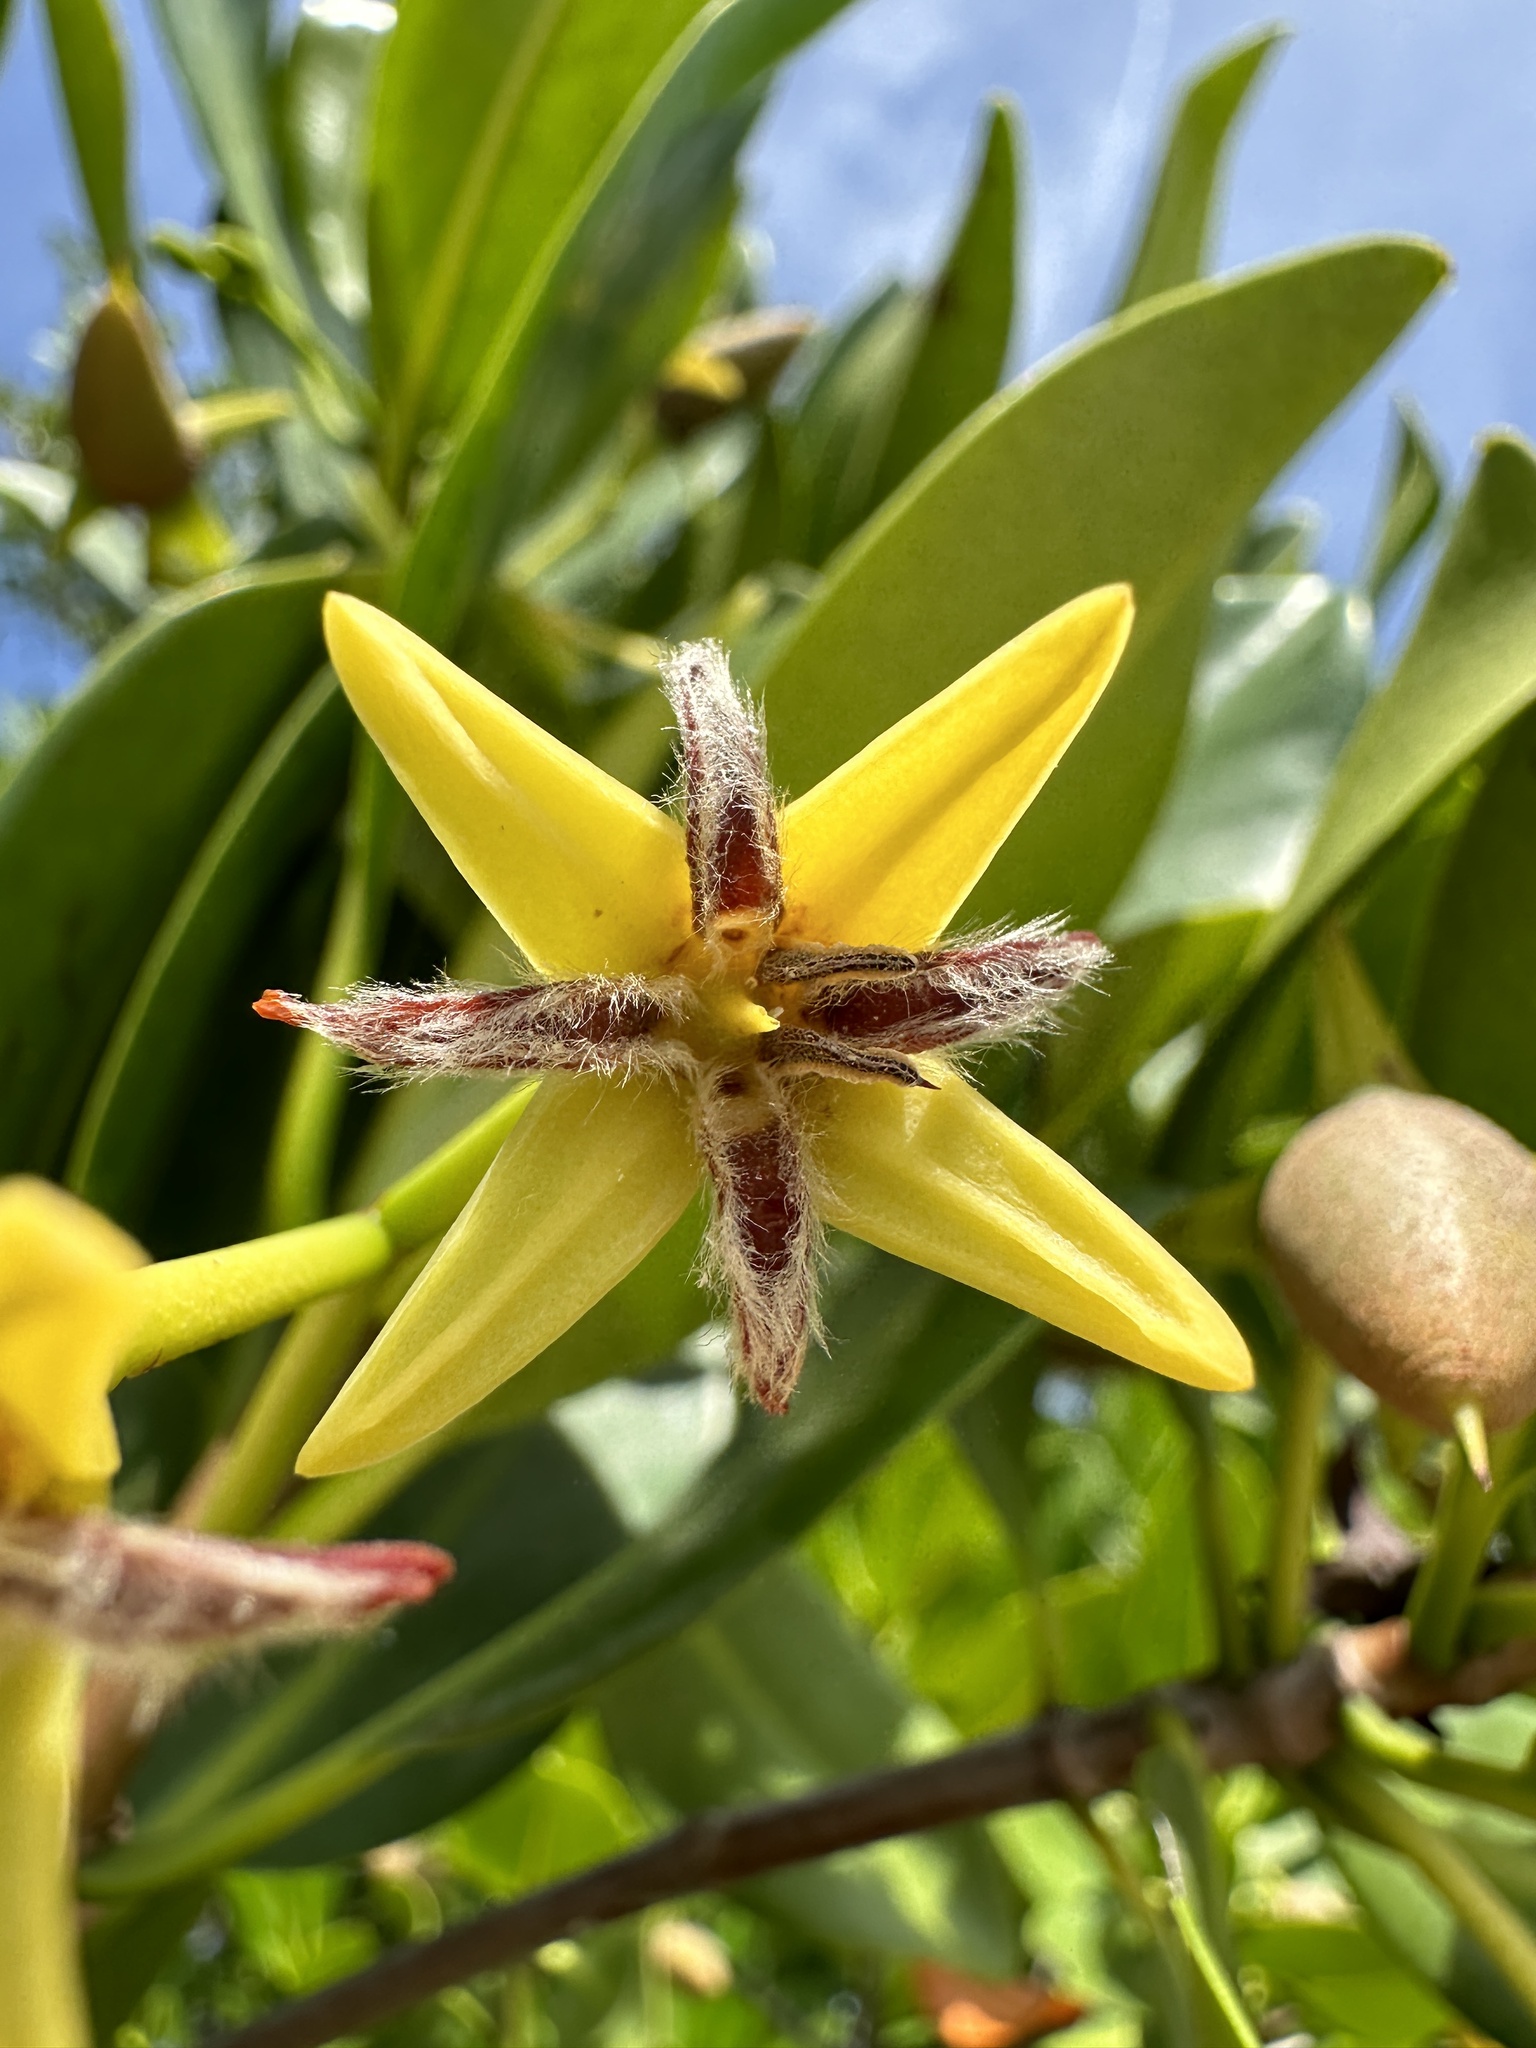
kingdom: Plantae
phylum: Tracheophyta
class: Magnoliopsida
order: Malpighiales
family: Rhizophoraceae
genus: Rhizophora
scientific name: Rhizophora mangle
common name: Red mangrove
